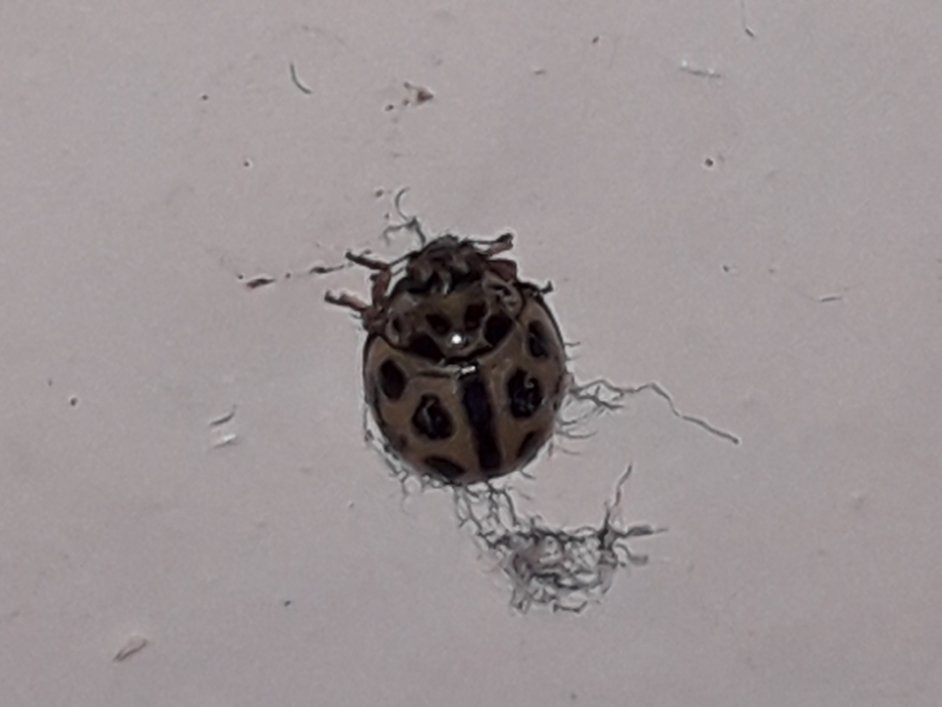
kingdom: Animalia
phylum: Arthropoda
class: Insecta
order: Coleoptera
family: Coccinellidae
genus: Tytthaspis
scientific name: Tytthaspis sedecimpunctata
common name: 16-spot ladybird
